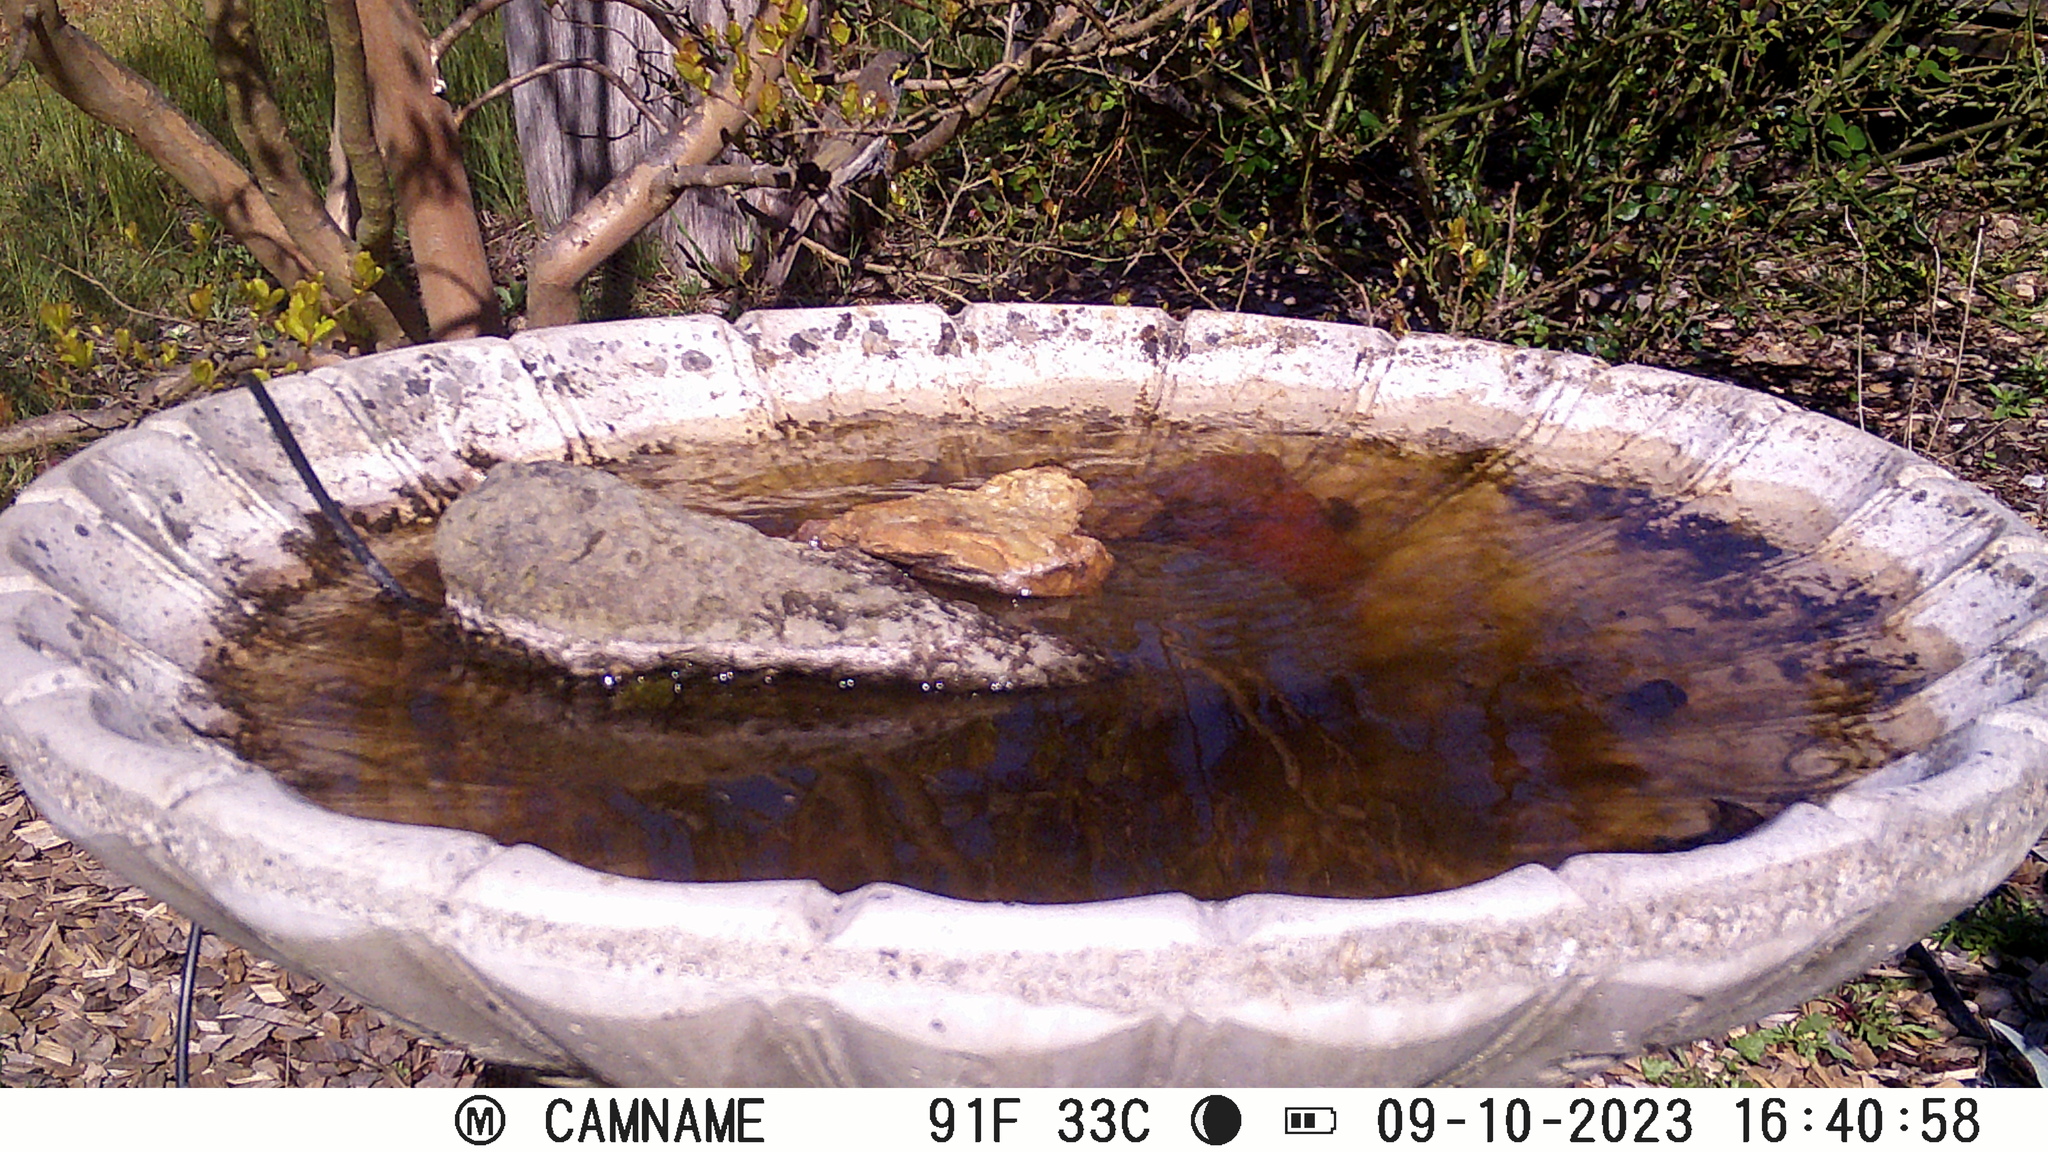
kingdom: Animalia
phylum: Chordata
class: Aves
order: Passeriformes
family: Meliphagidae
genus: Caligavis
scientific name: Caligavis chrysops
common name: Yellow-faced honeyeater
